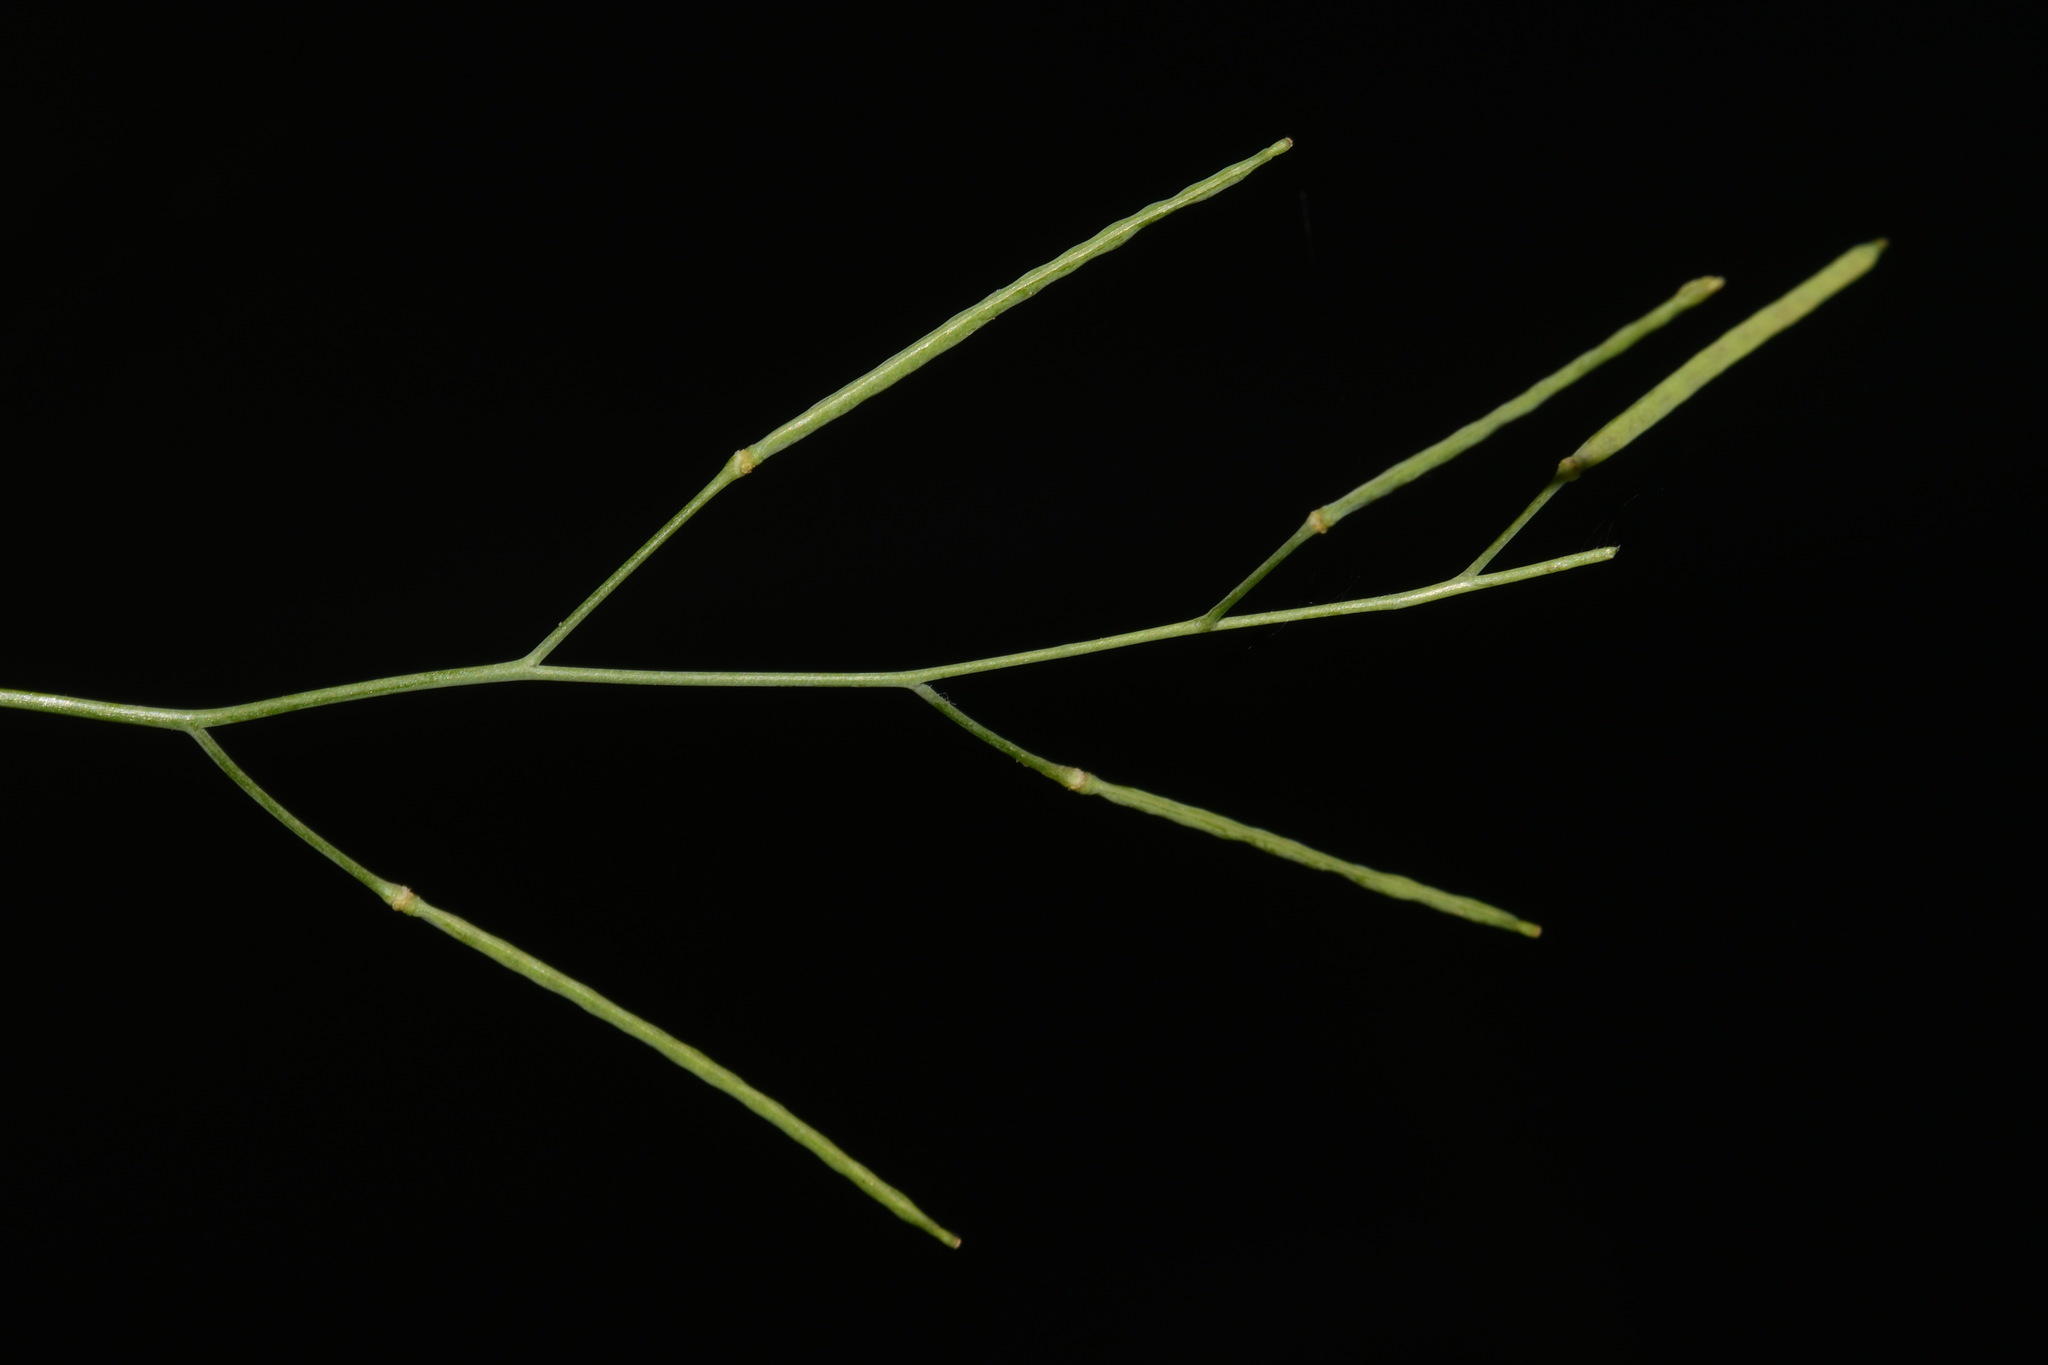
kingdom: Plantae
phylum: Tracheophyta
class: Magnoliopsida
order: Brassicales
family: Brassicaceae
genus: Arabidopsis
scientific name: Arabidopsis lyrata
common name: Lyrate rockcress
